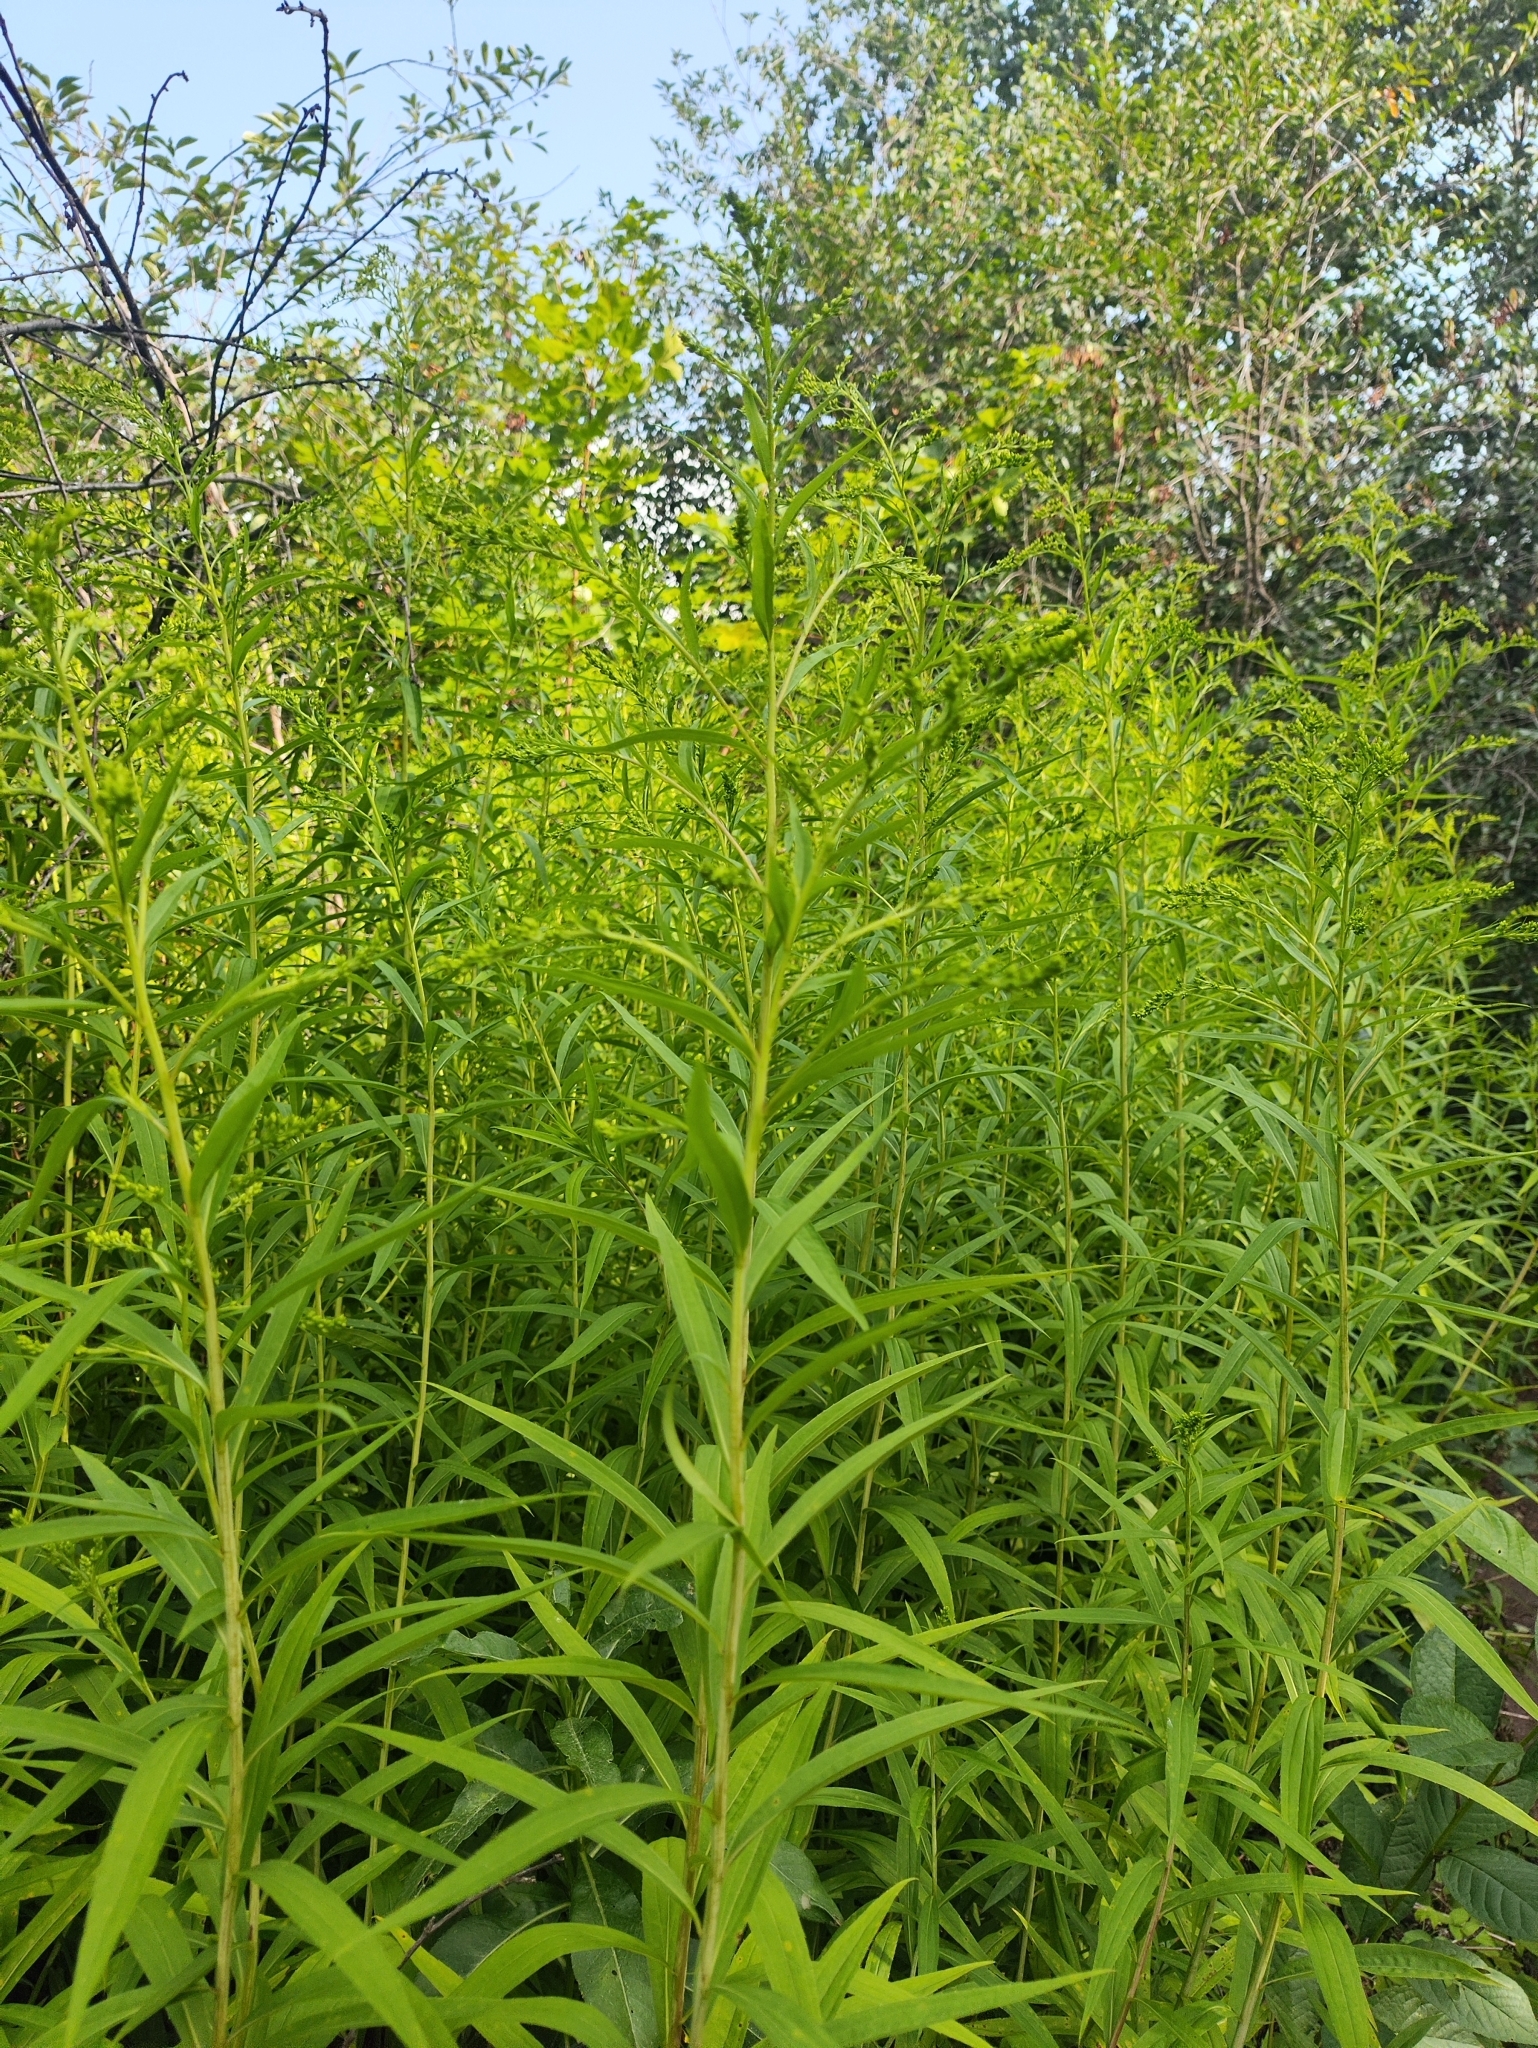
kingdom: Plantae
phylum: Tracheophyta
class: Magnoliopsida
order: Asterales
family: Asteraceae
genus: Solidago
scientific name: Solidago canadensis
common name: Canada goldenrod
